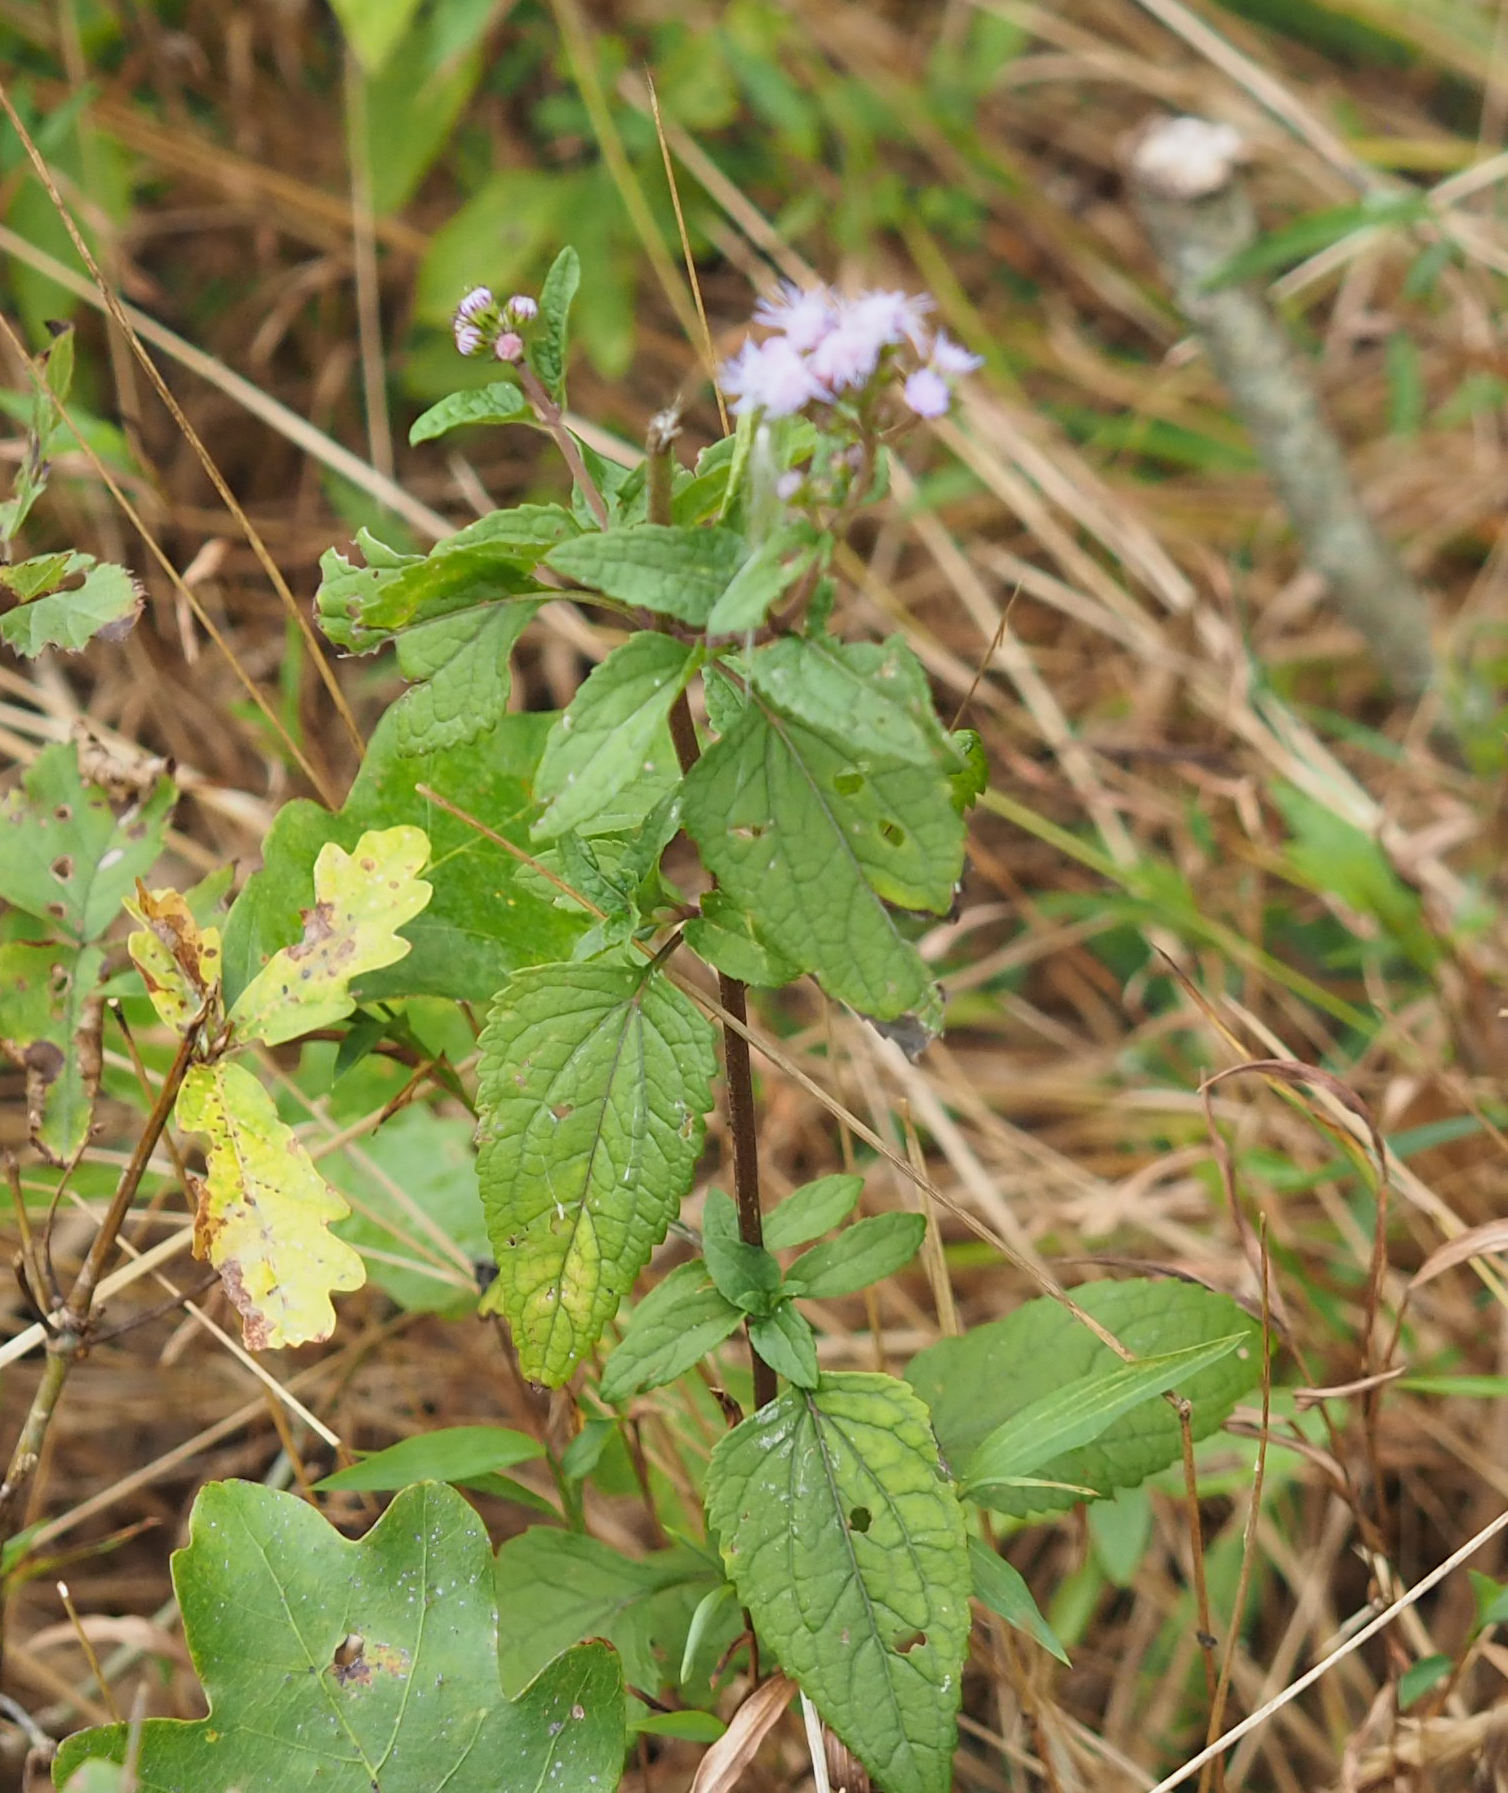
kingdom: Plantae
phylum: Tracheophyta
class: Magnoliopsida
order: Asterales
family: Asteraceae
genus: Conoclinium
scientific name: Conoclinium coelestinum
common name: Blue mistflower
